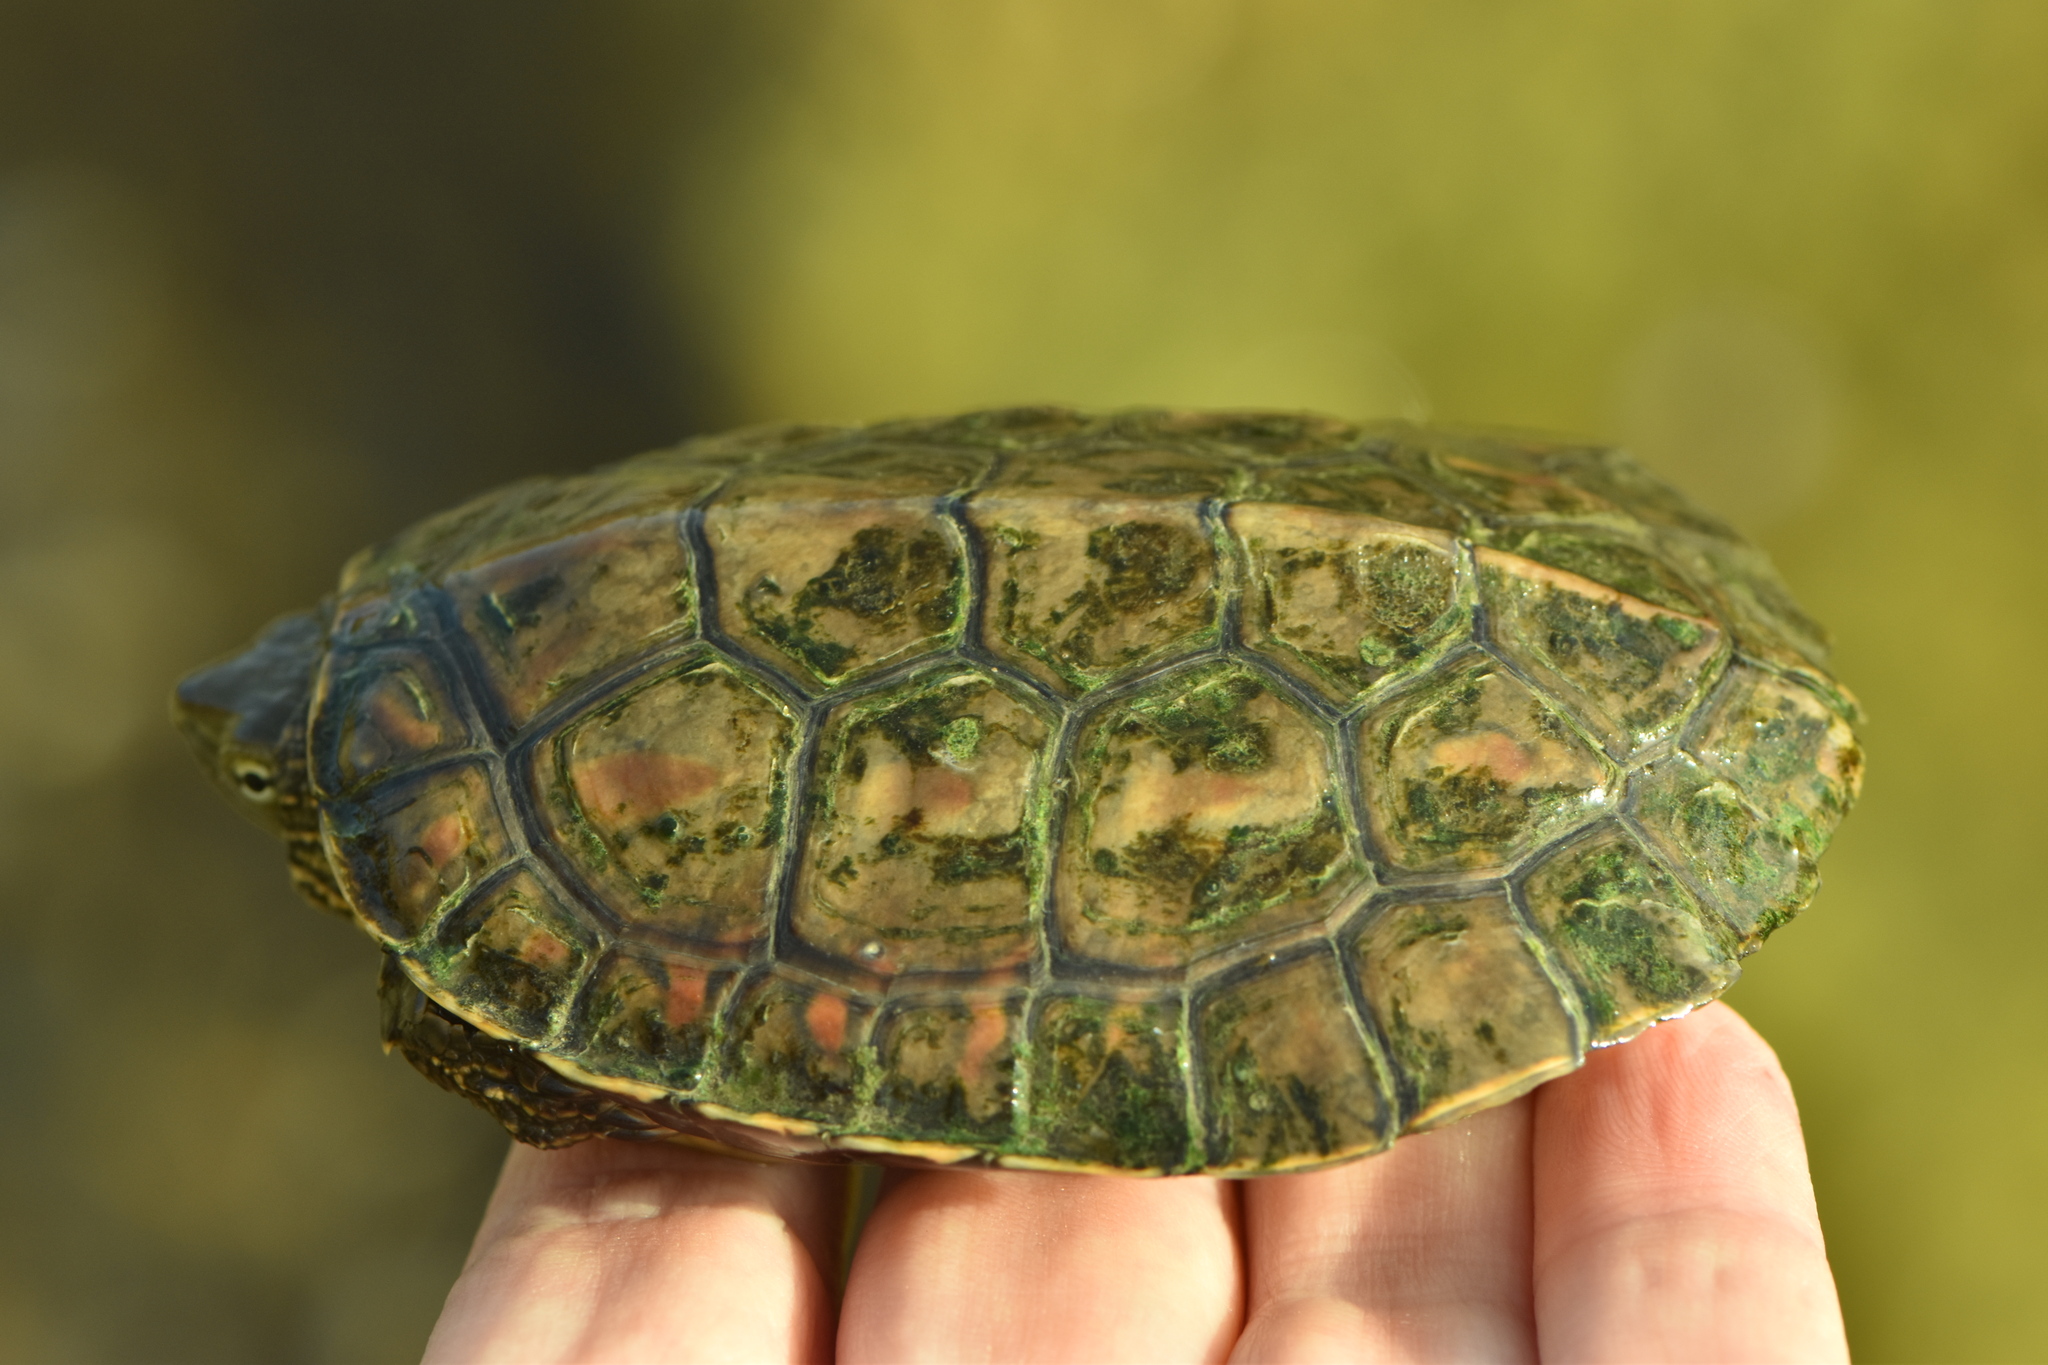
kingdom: Animalia
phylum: Chordata
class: Testudines
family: Geoemydidae
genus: Mauremys
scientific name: Mauremys leprosa
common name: Mediterranean pond turtle
